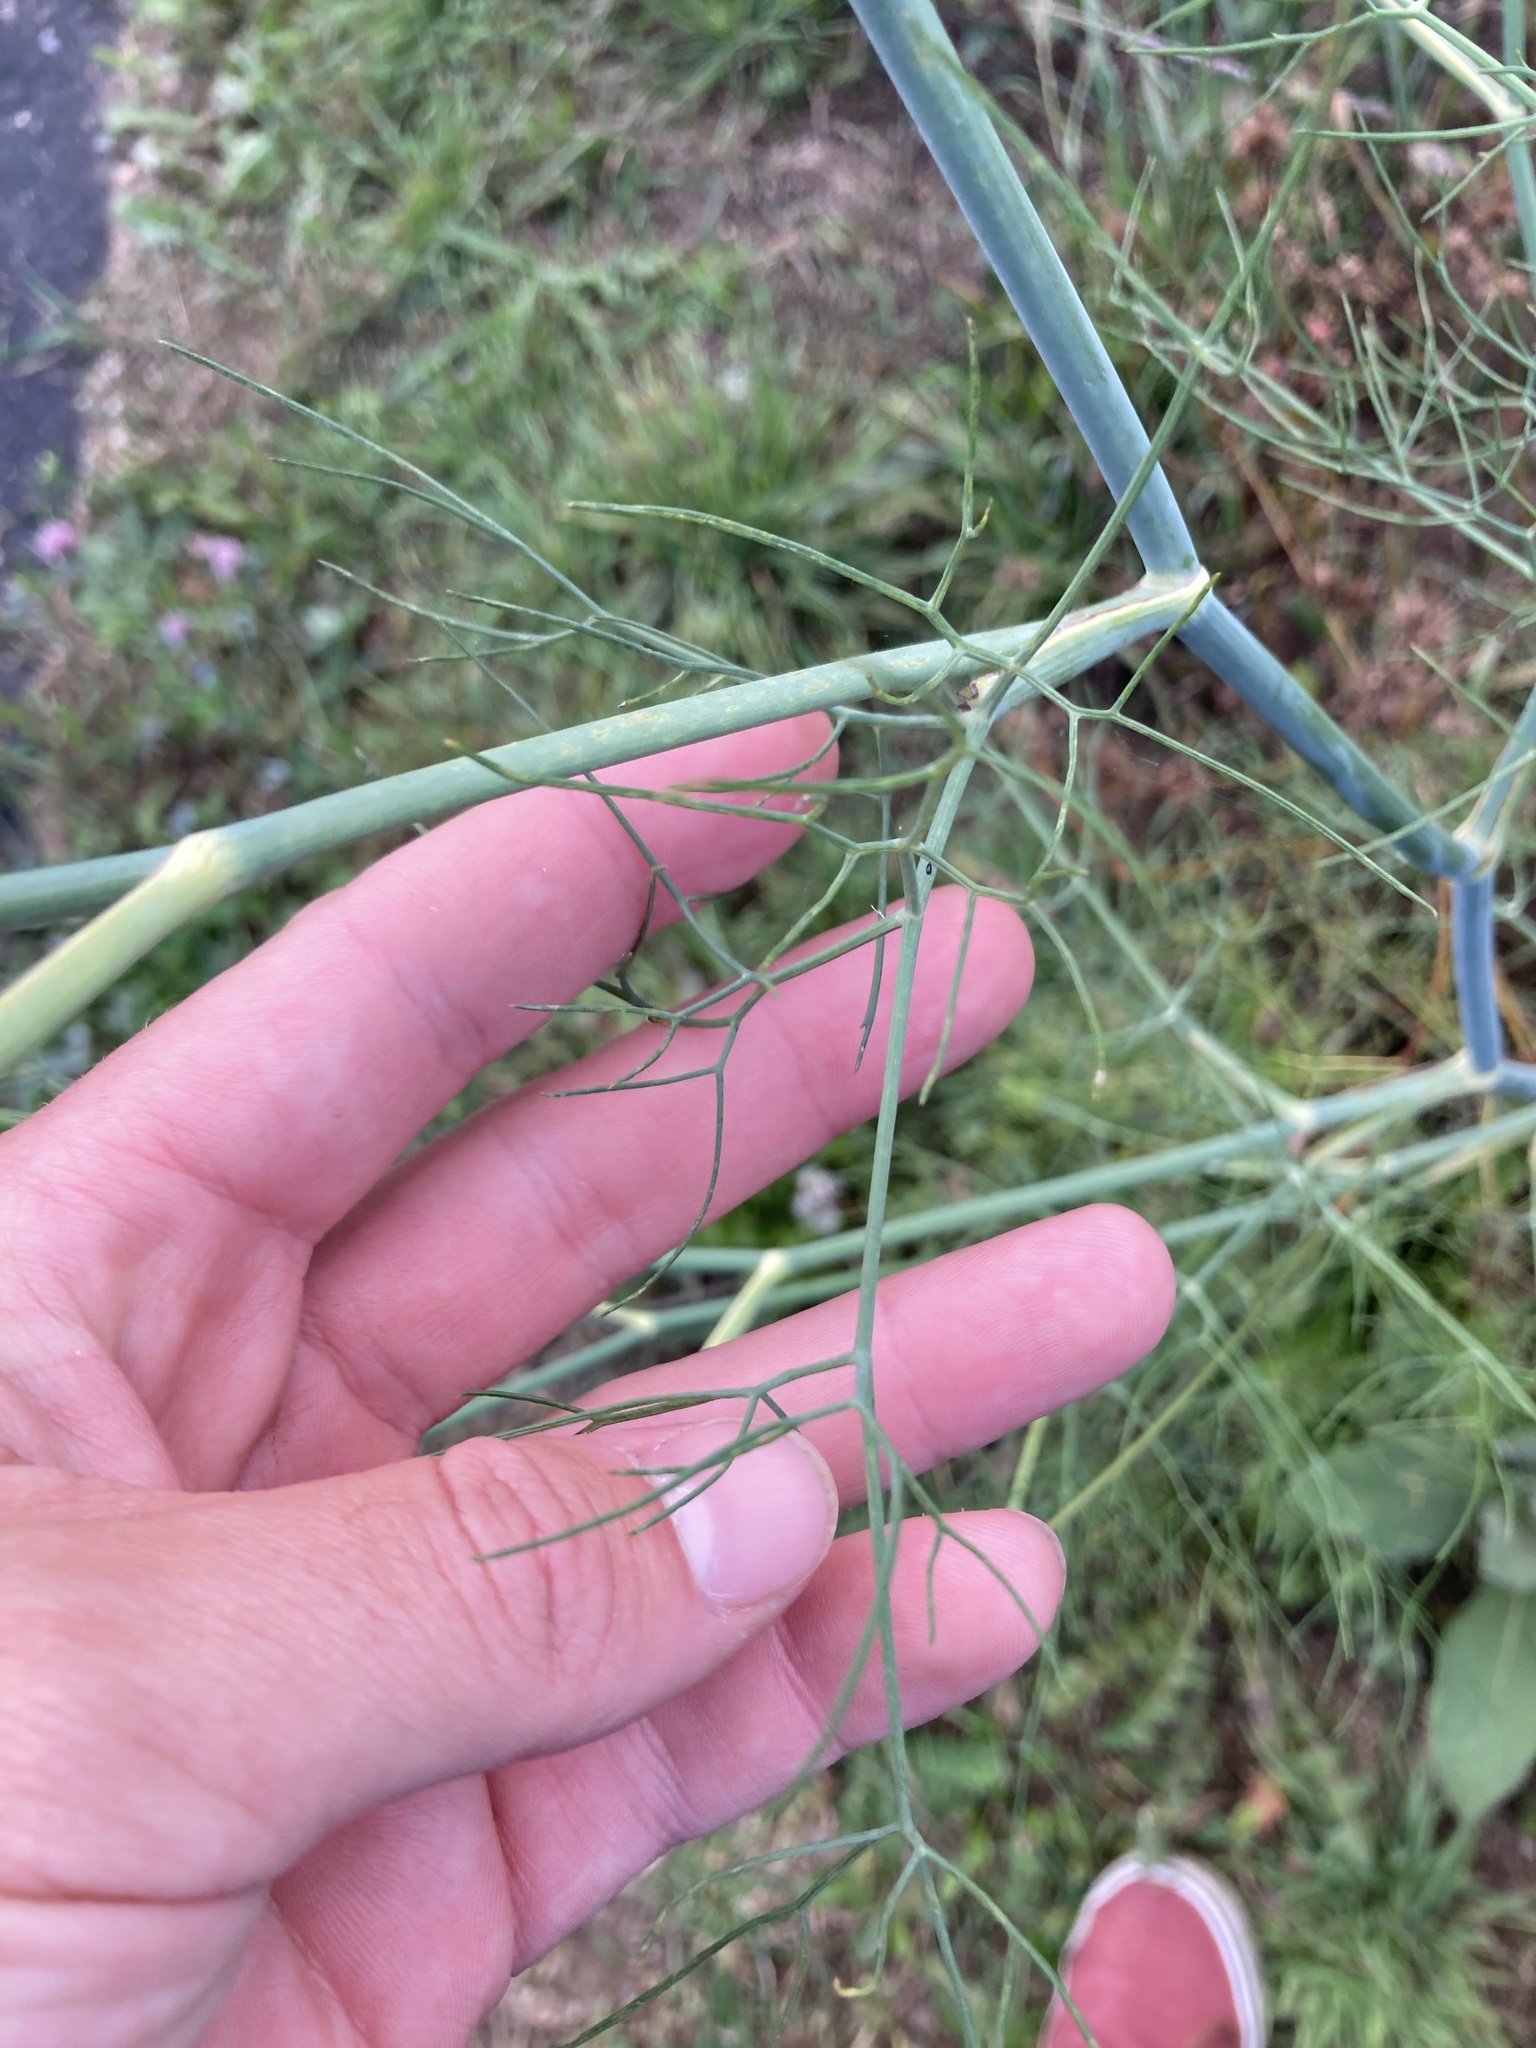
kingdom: Plantae
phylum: Tracheophyta
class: Magnoliopsida
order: Apiales
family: Apiaceae
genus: Foeniculum
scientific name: Foeniculum vulgare
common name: Fennel
